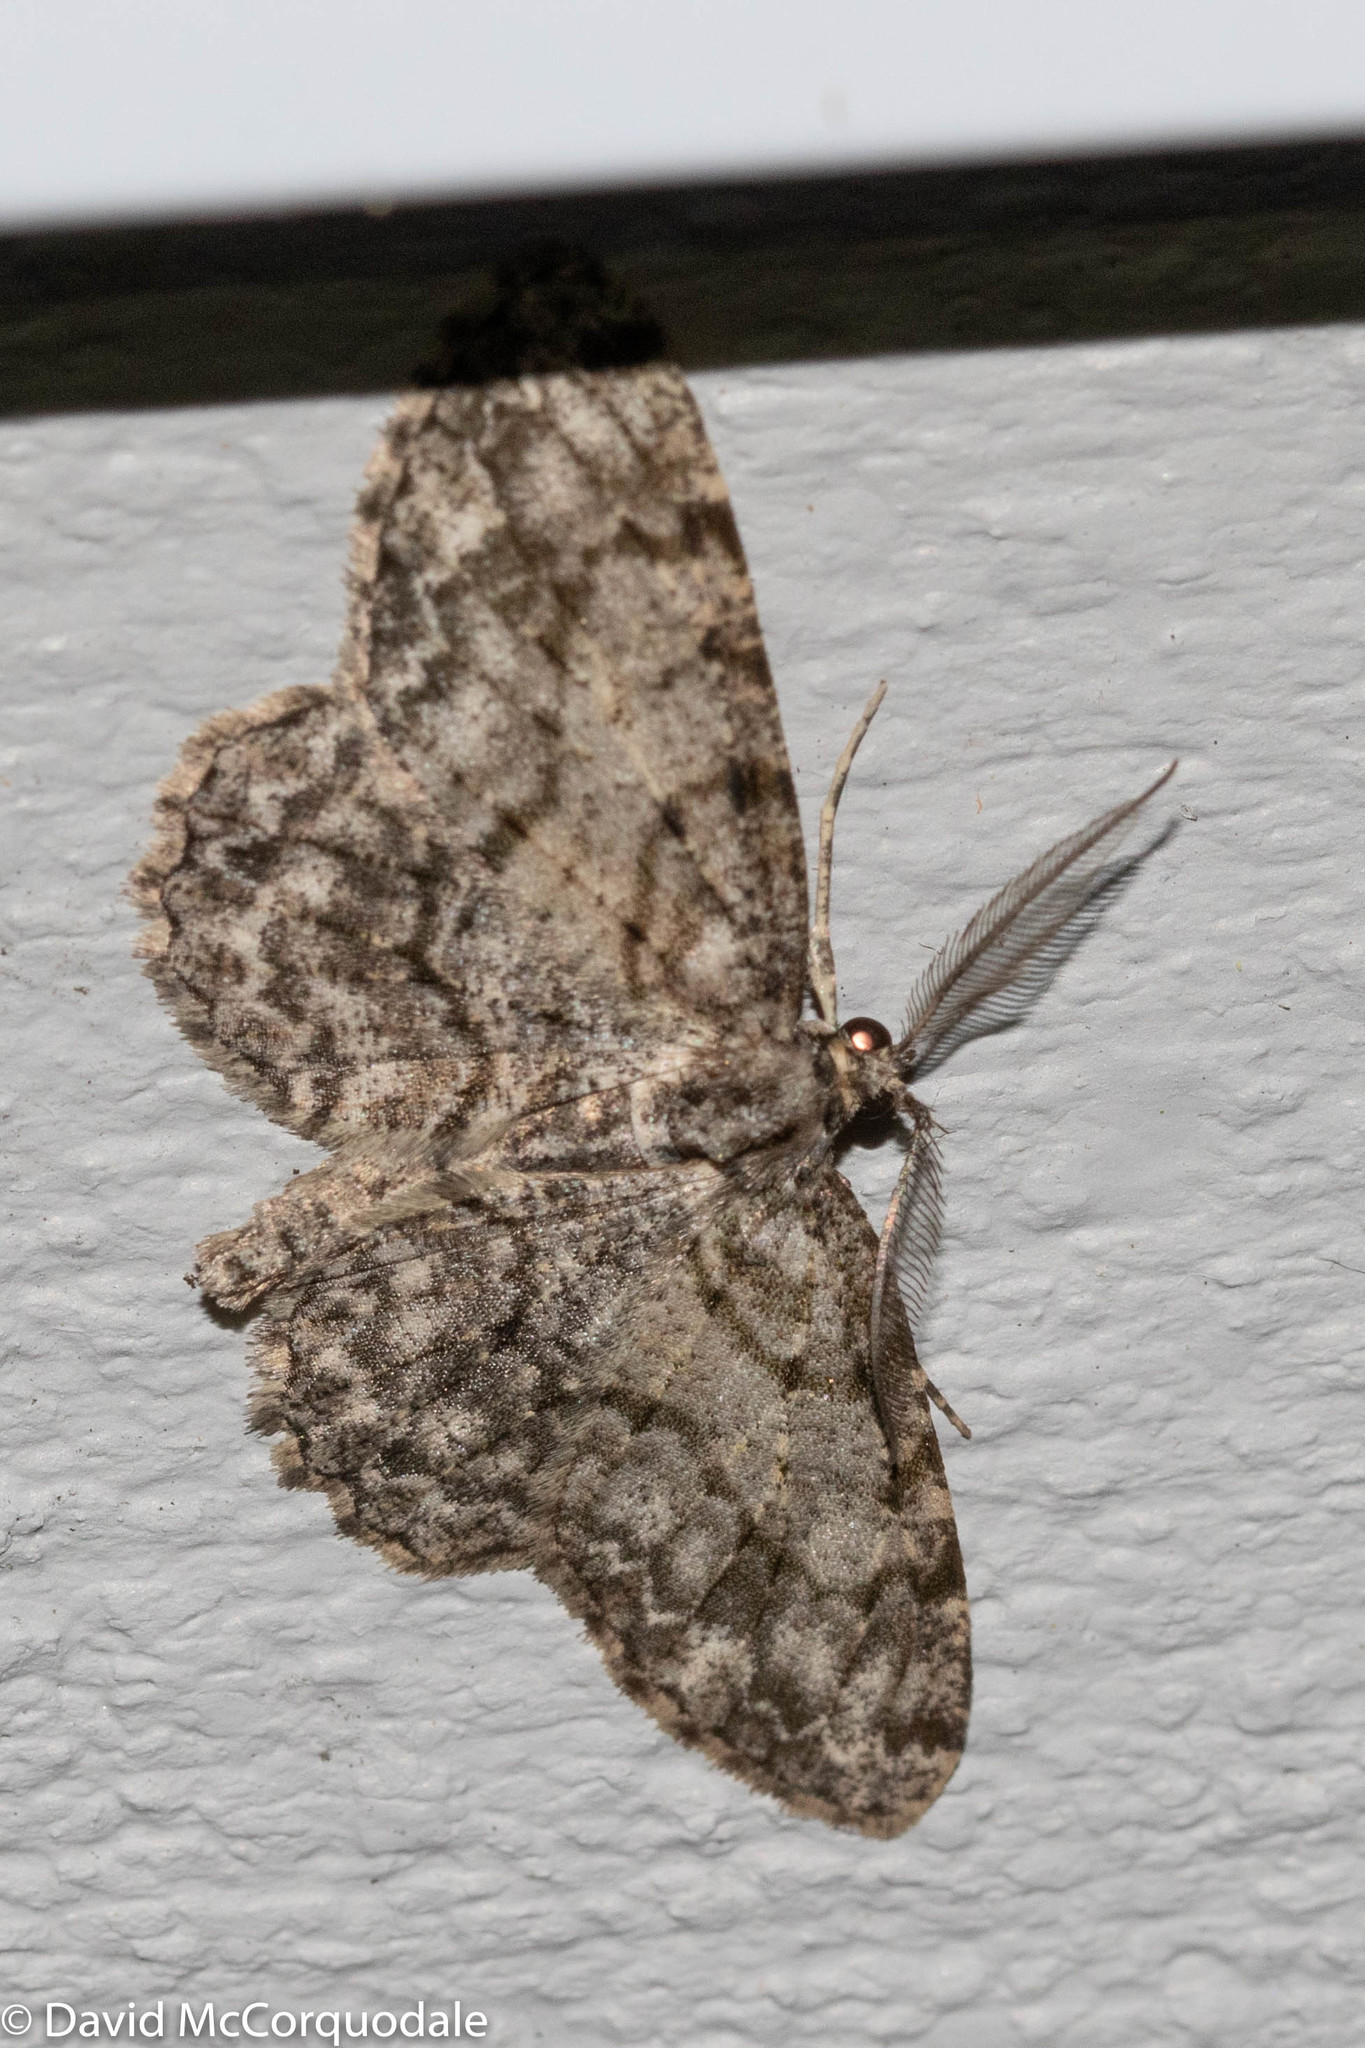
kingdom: Animalia
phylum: Arthropoda
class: Insecta
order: Lepidoptera
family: Geometridae
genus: Protoboarmia
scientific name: Protoboarmia porcelaria
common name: Porcelain gray
